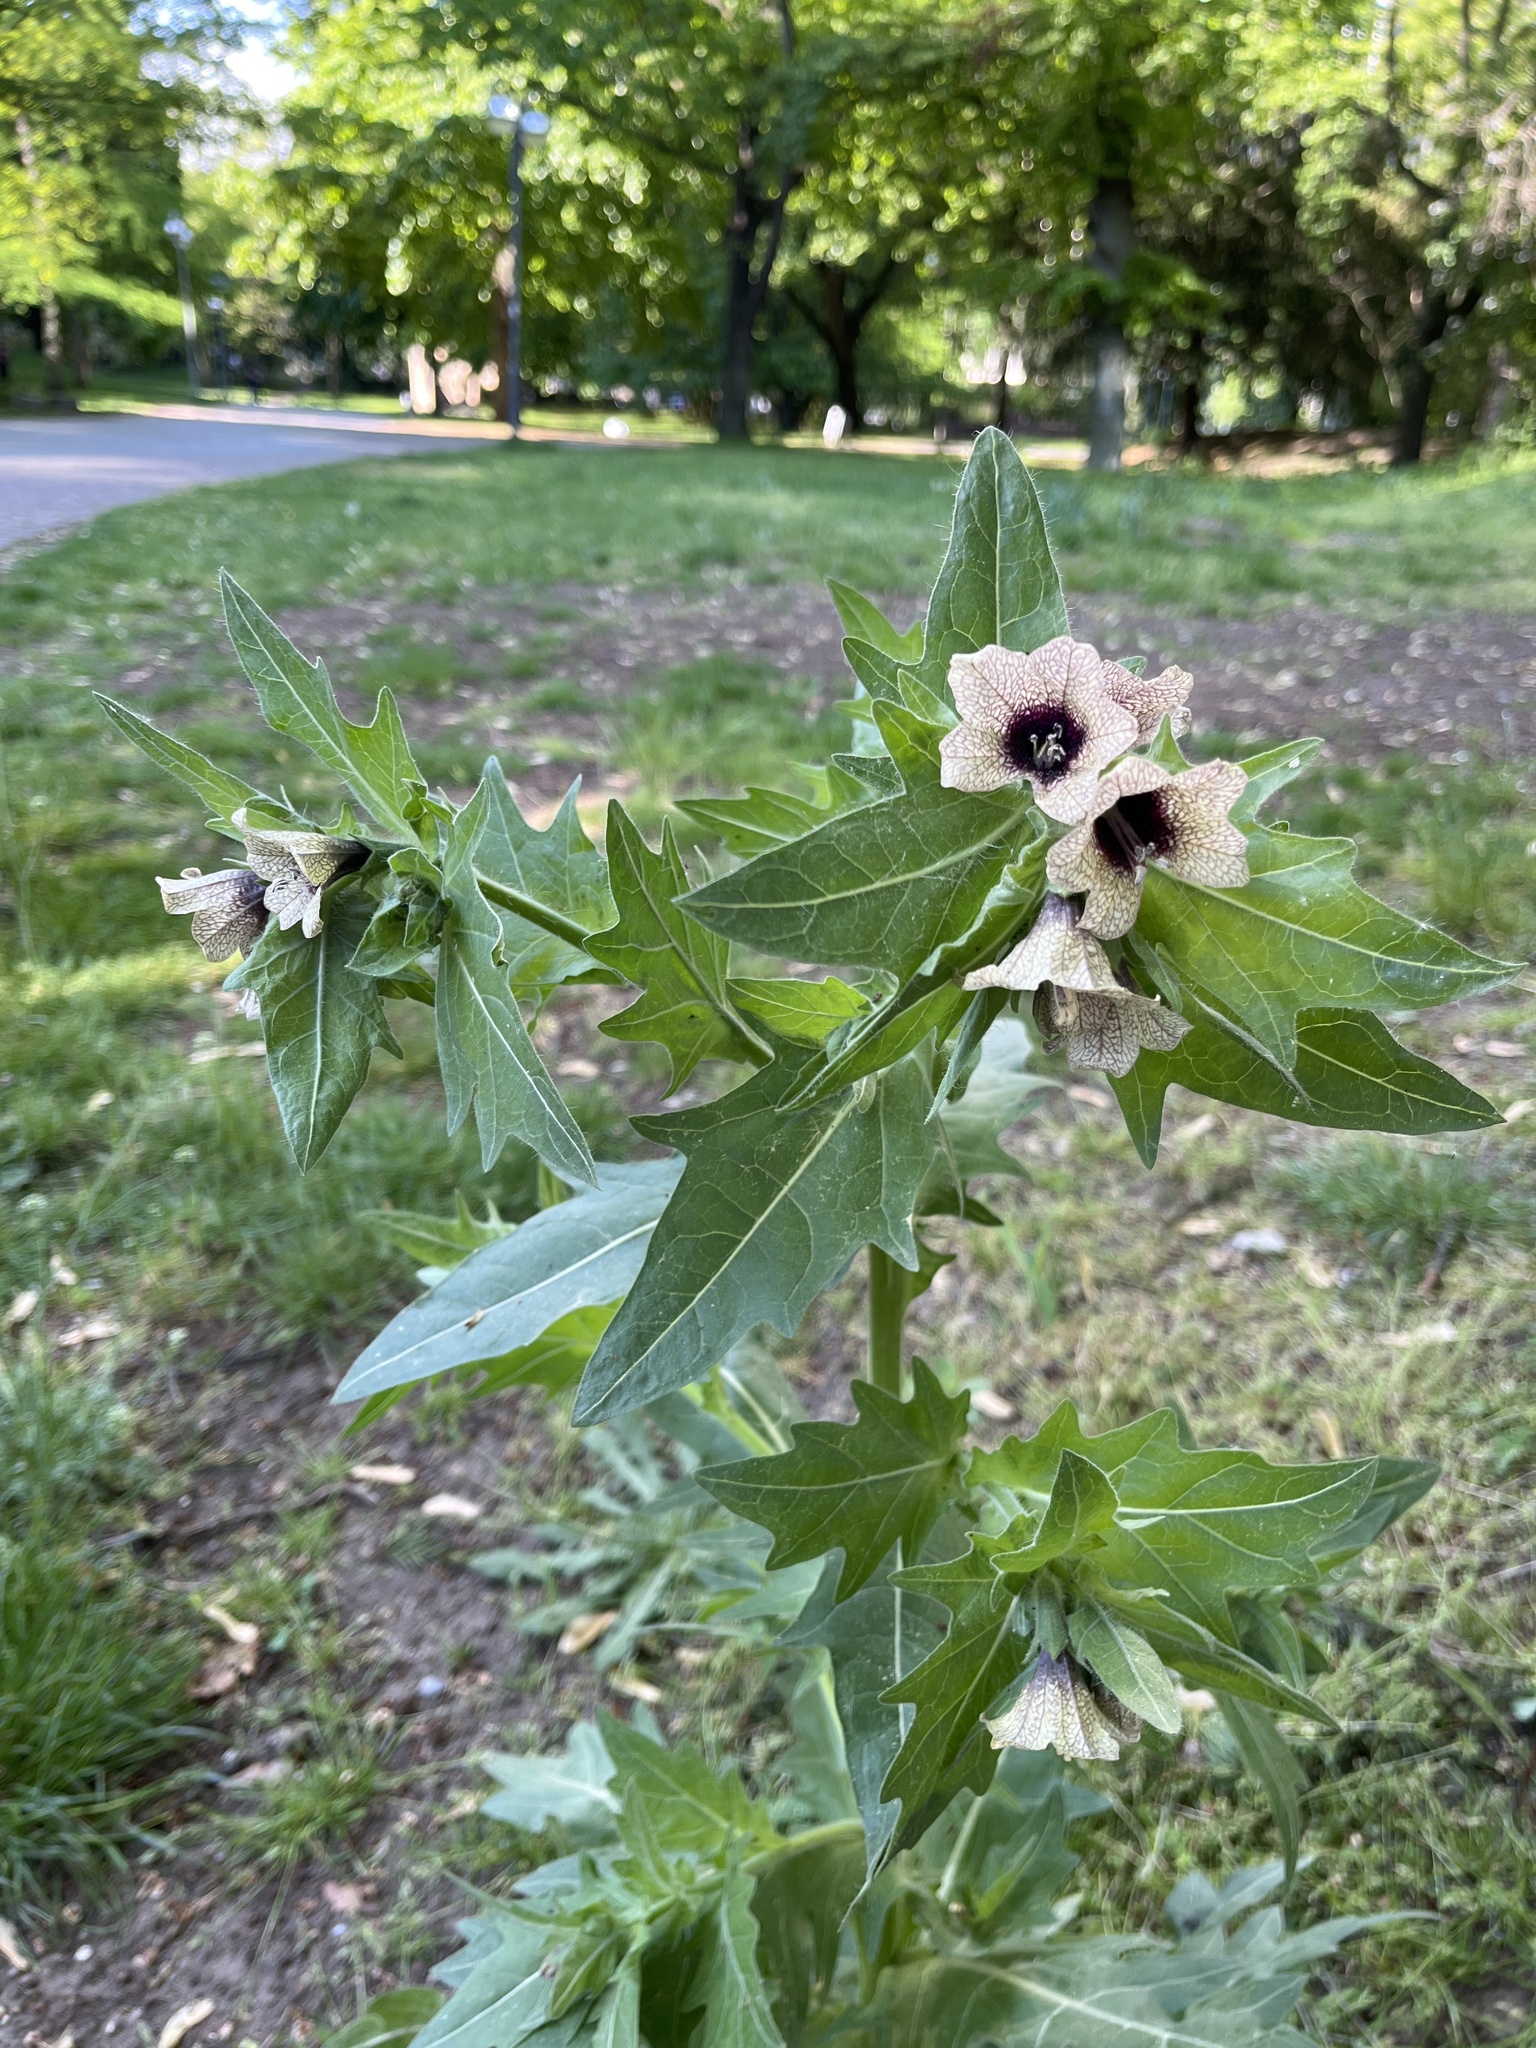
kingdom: Plantae
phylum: Tracheophyta
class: Magnoliopsida
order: Solanales
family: Solanaceae
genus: Hyoscyamus
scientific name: Hyoscyamus niger
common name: Henbane
